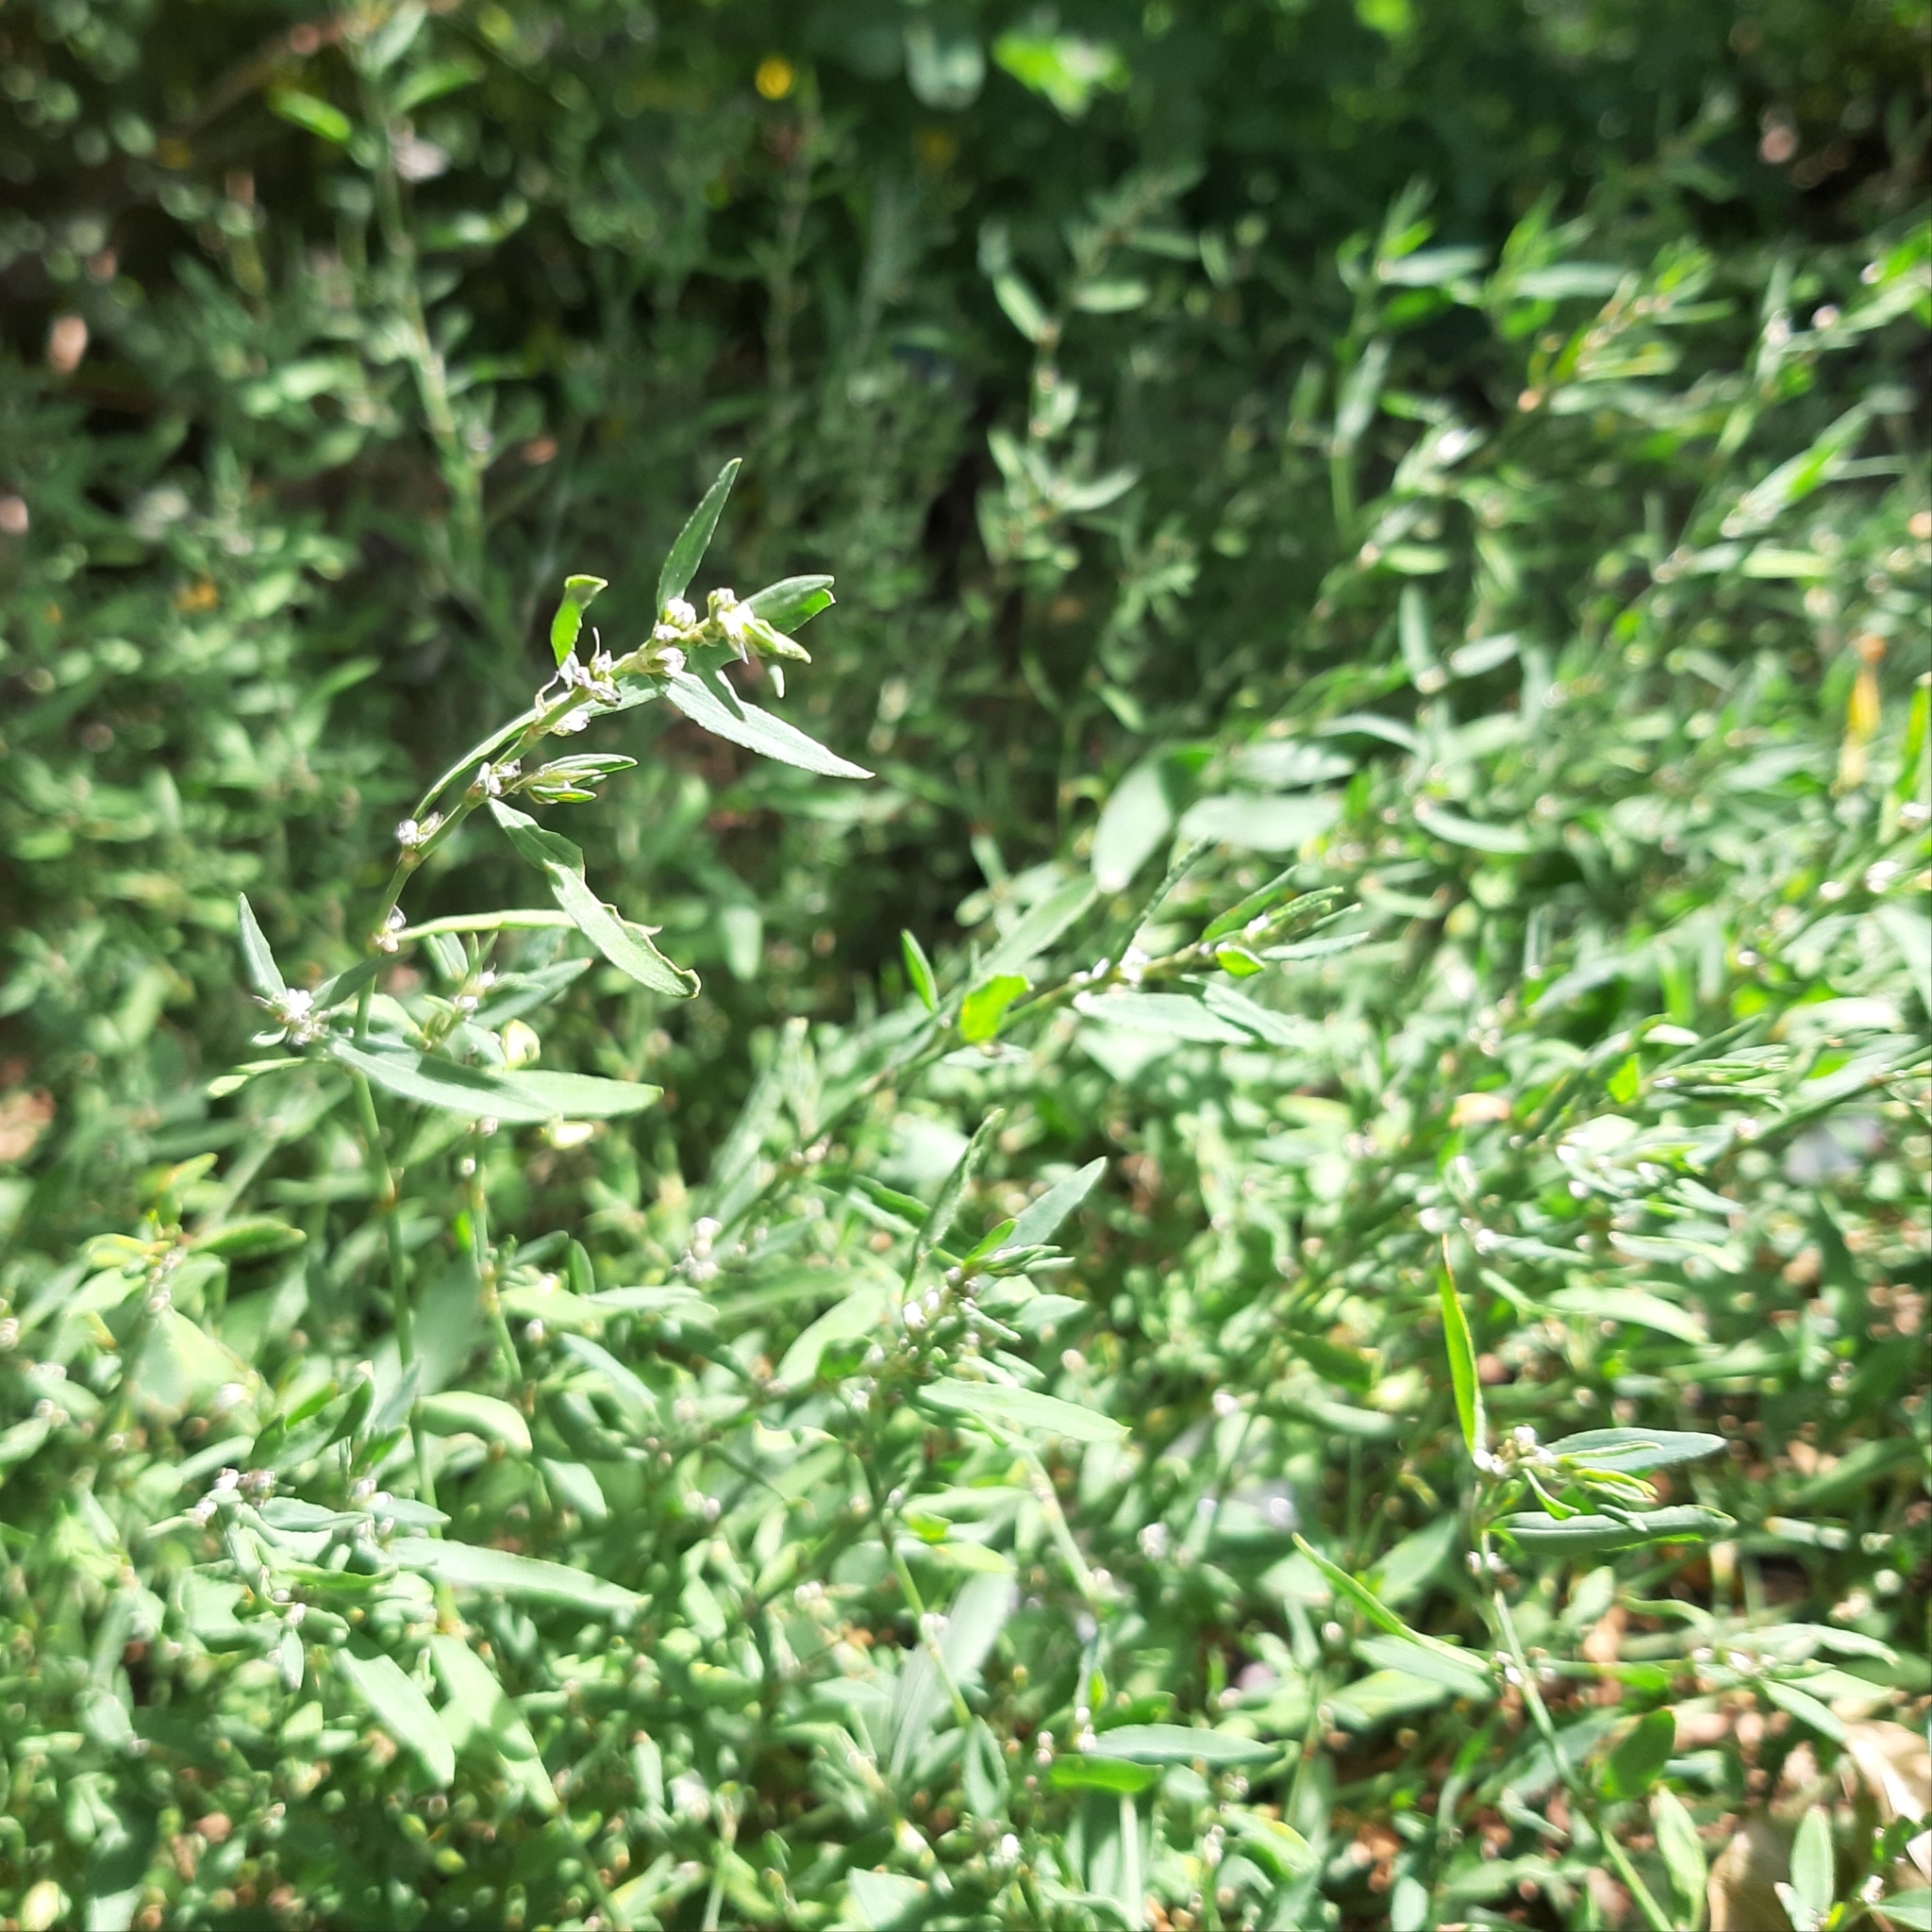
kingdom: Plantae
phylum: Tracheophyta
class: Magnoliopsida
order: Caryophyllales
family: Polygonaceae
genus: Polygonum
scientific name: Polygonum aviculare
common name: Prostrate knotweed
